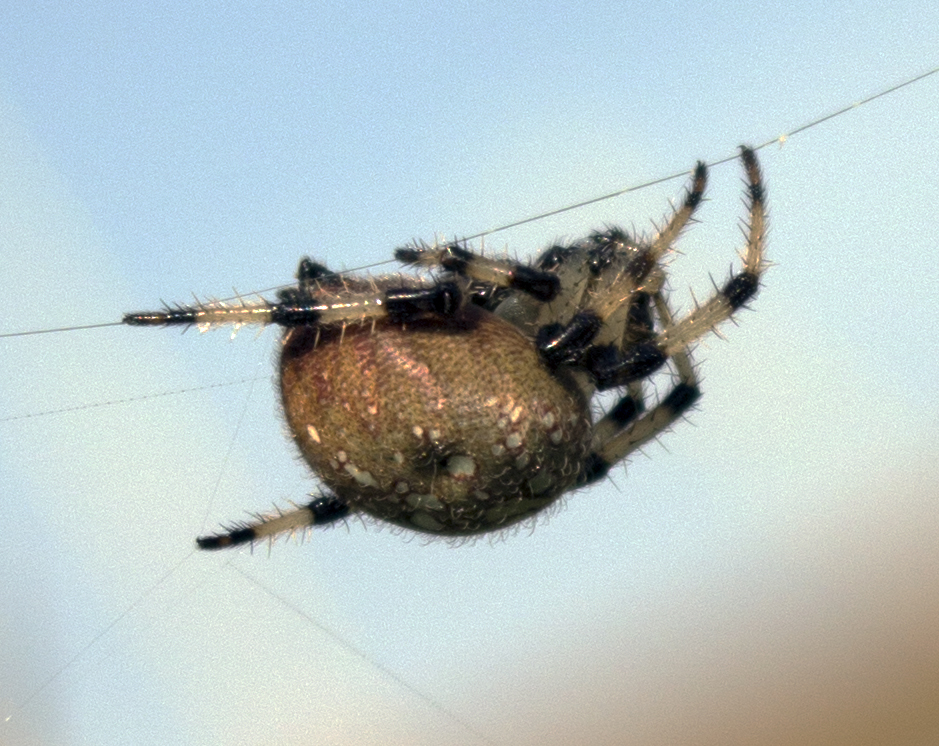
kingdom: Animalia
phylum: Arthropoda
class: Arachnida
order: Araneae
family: Araneidae
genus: Araneus
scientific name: Araneus trifolium
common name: Shamrock orbweaver
